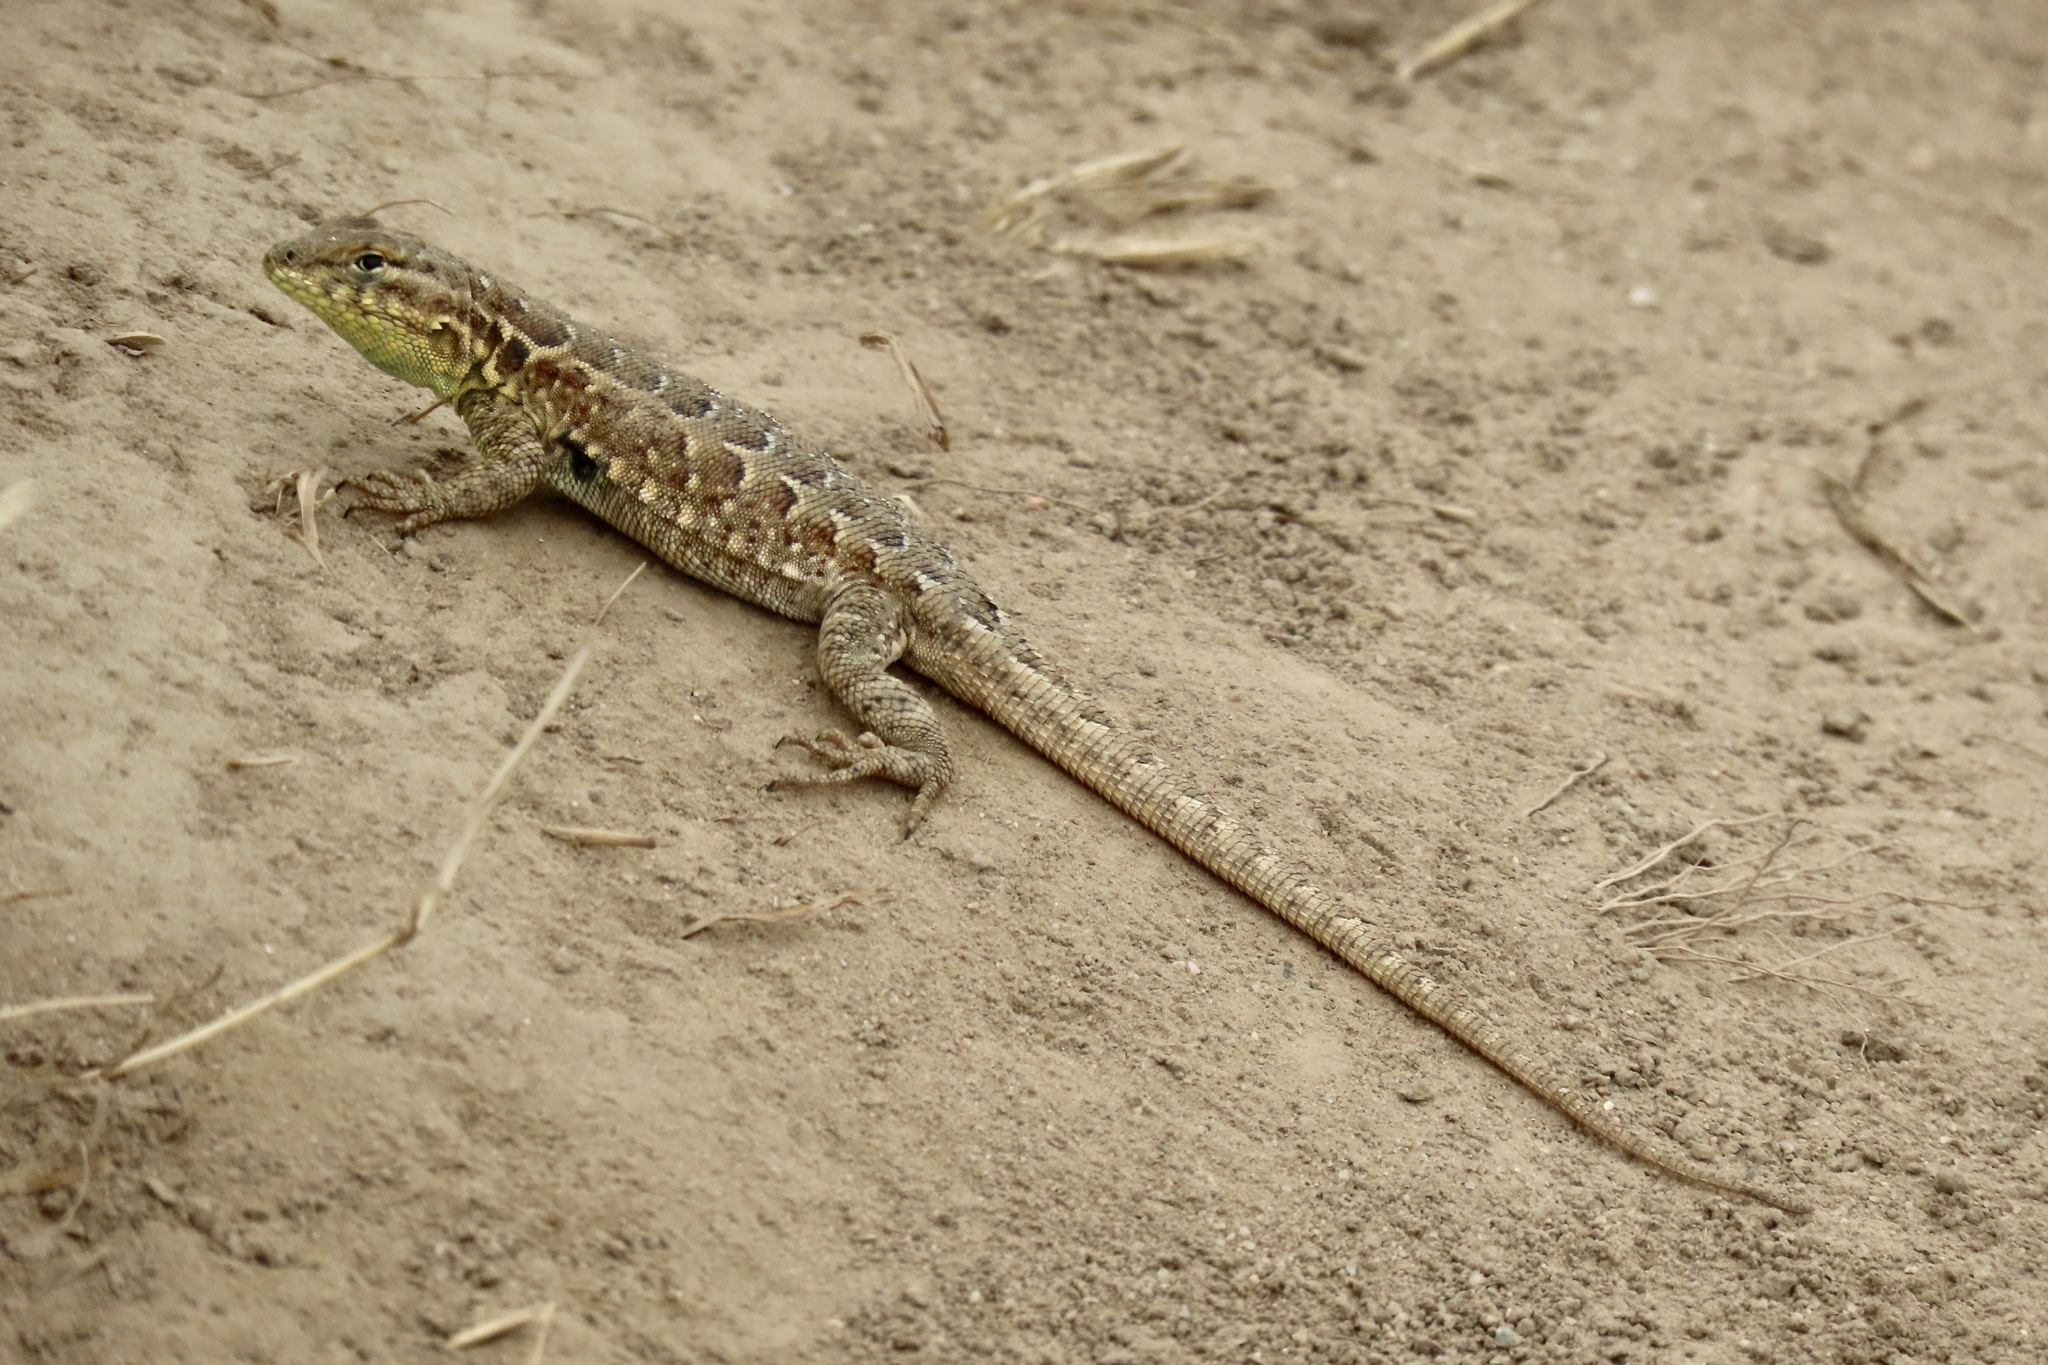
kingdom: Animalia
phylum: Chordata
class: Squamata
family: Phrynosomatidae
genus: Uta
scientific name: Uta stansburiana
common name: Side-blotched lizard
